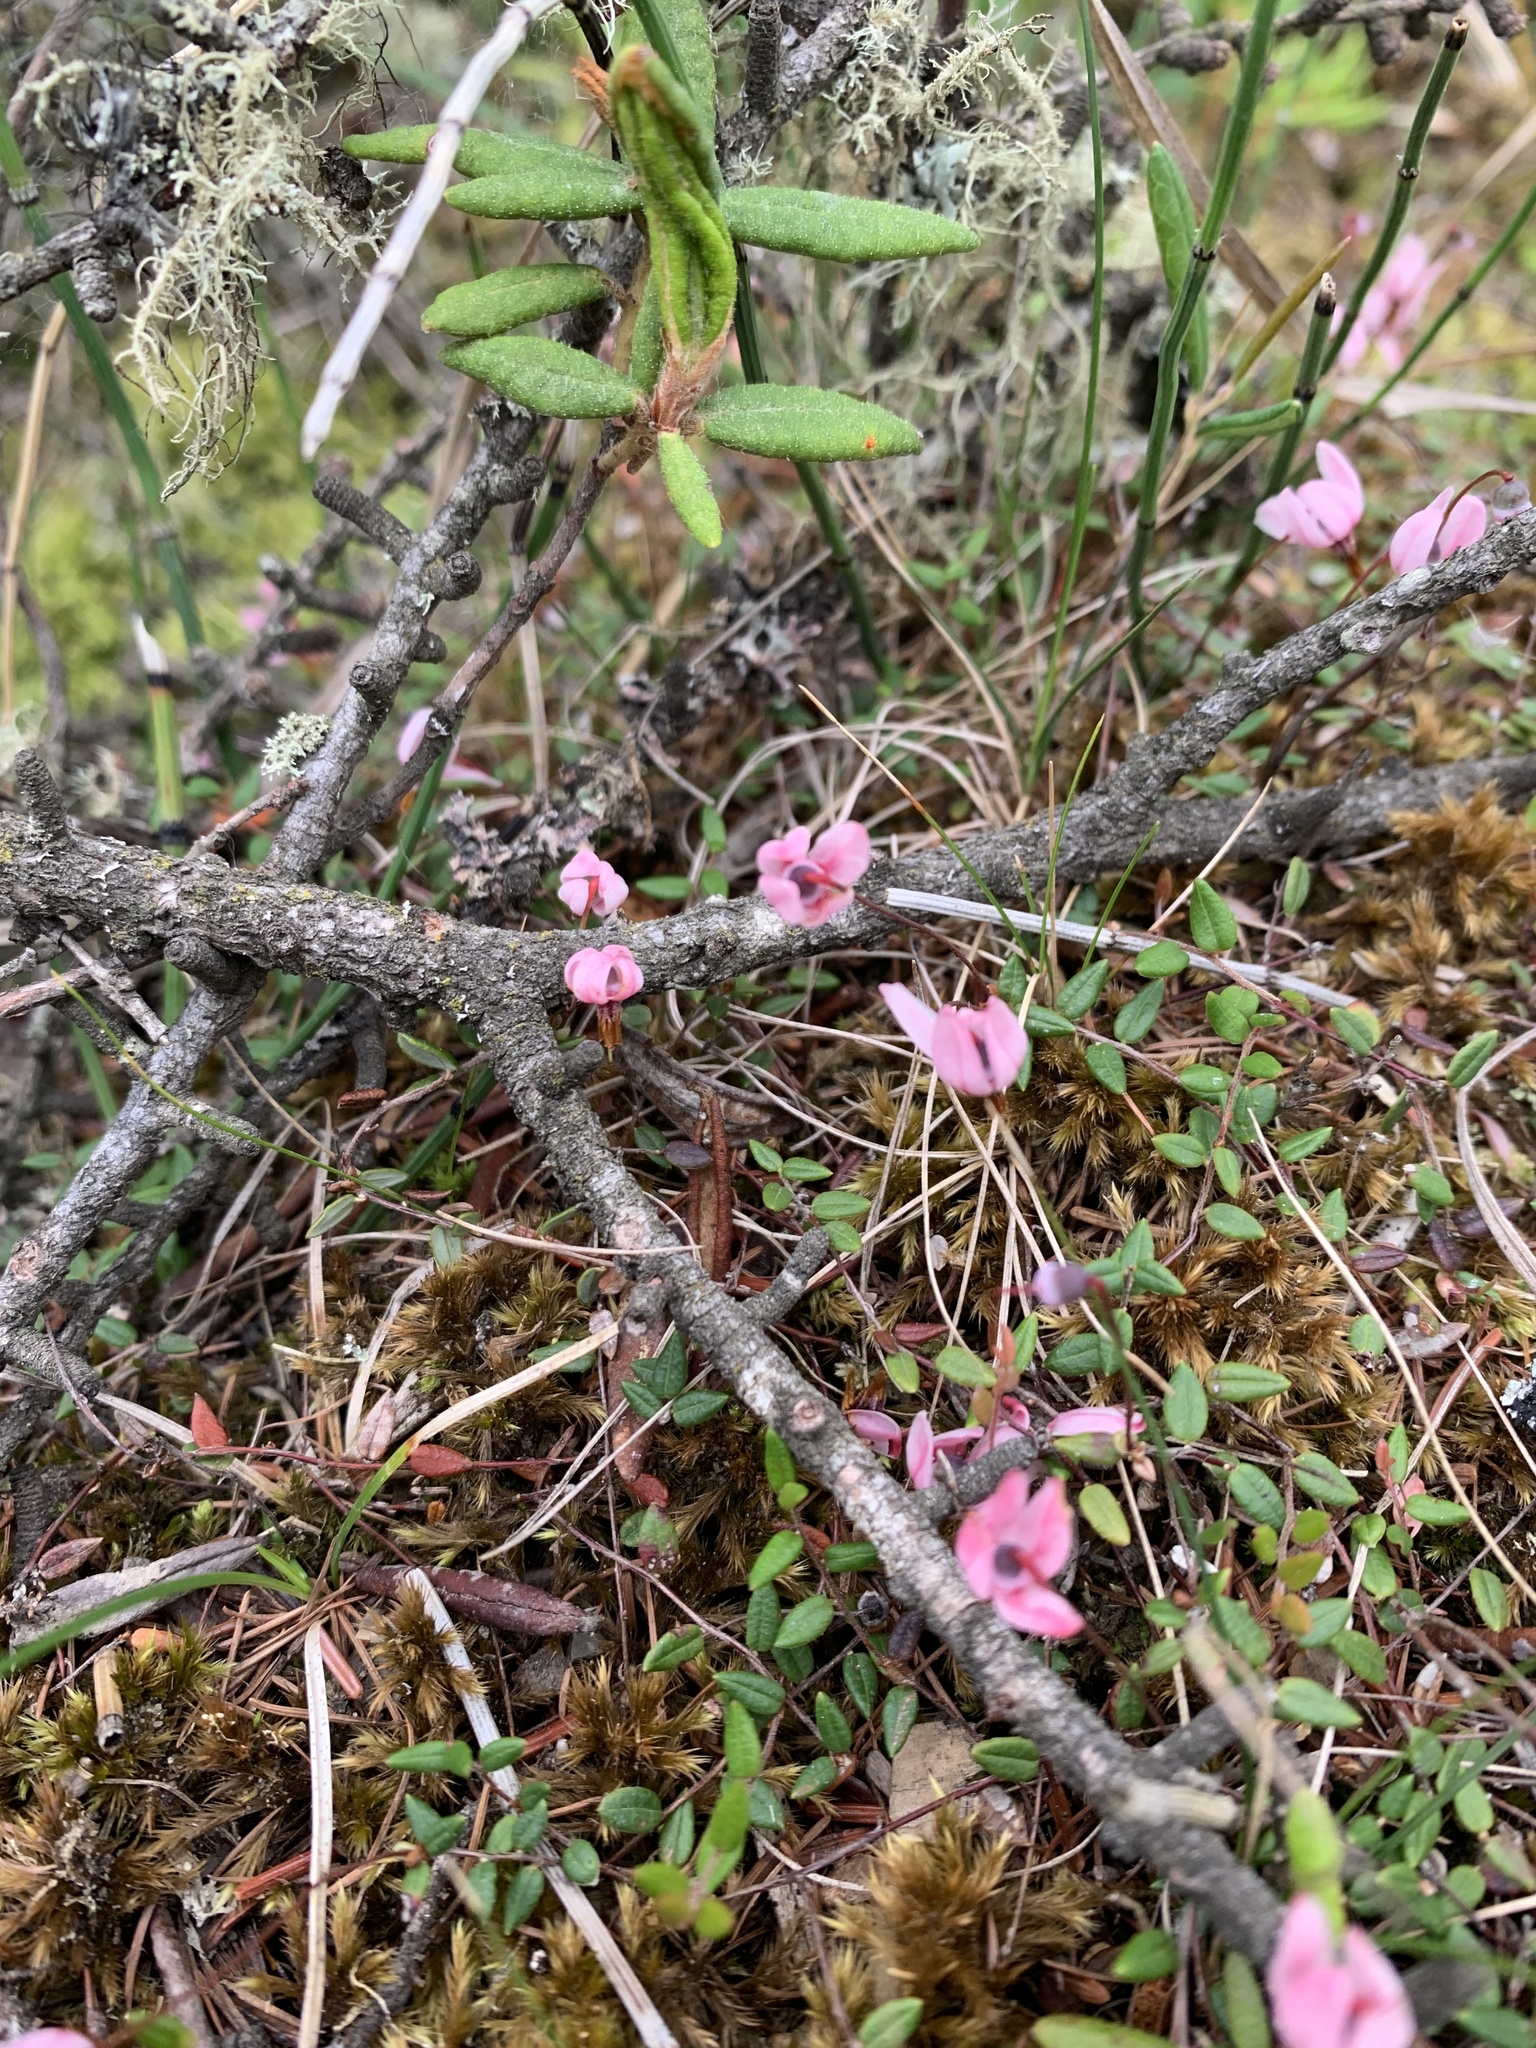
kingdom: Plantae
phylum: Tracheophyta
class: Magnoliopsida
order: Ericales
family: Ericaceae
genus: Vaccinium
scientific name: Vaccinium oxycoccos
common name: Cranberry
